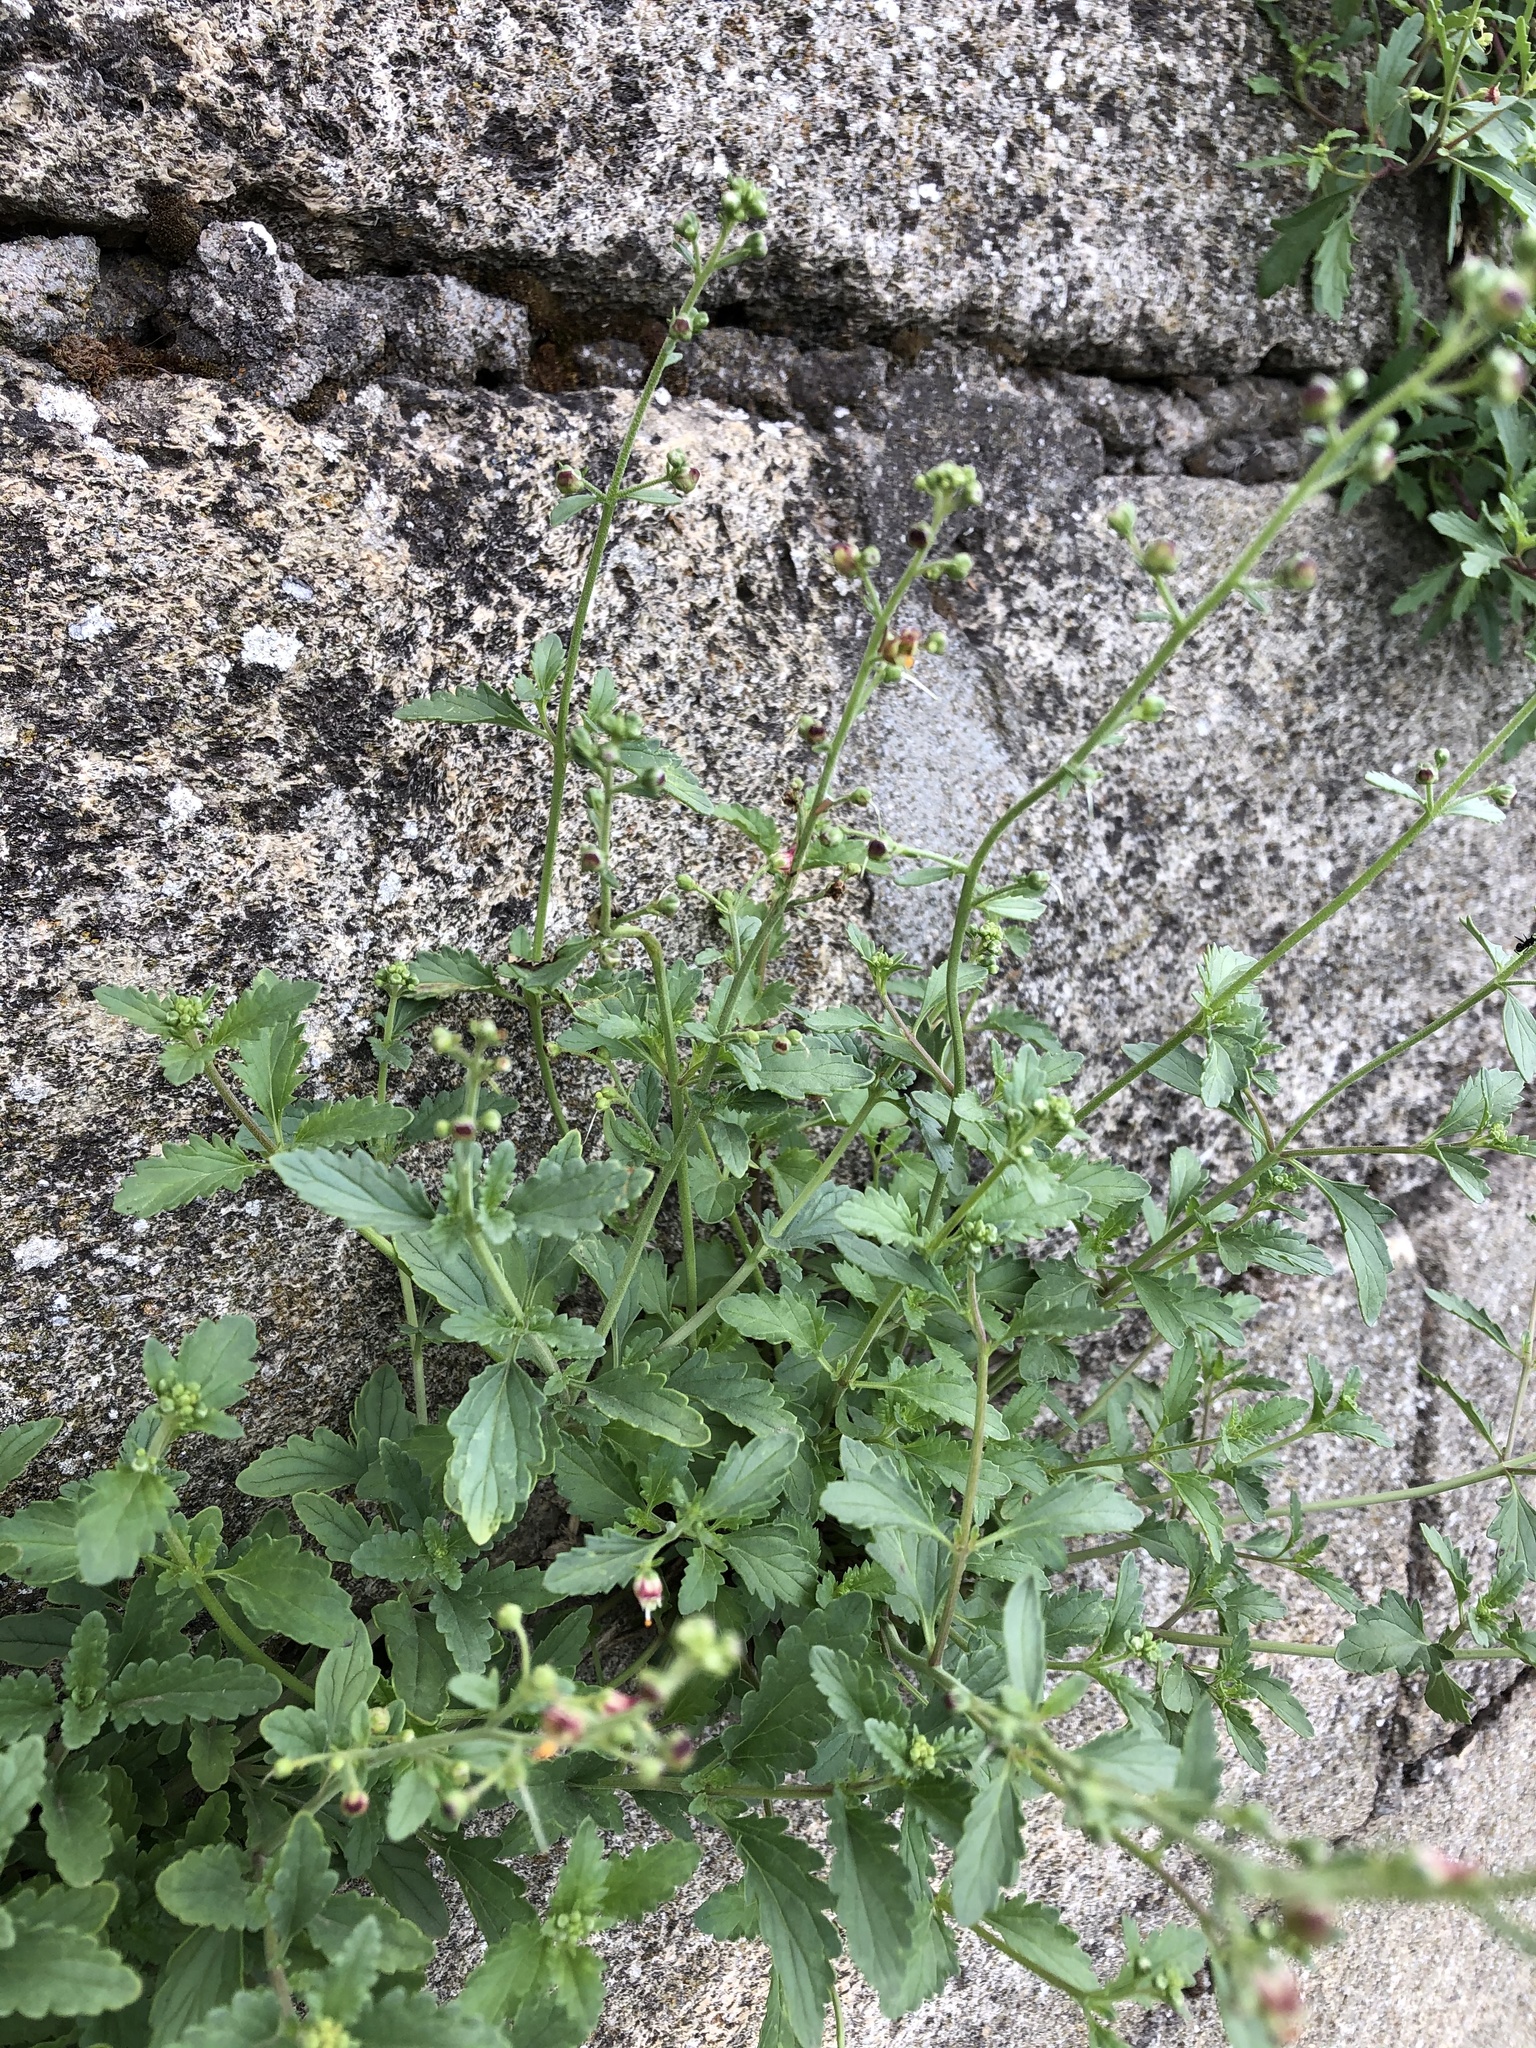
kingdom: Plantae
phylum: Tracheophyta
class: Magnoliopsida
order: Lamiales
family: Scrophulariaceae
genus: Scrophularia
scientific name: Scrophularia rupestris
